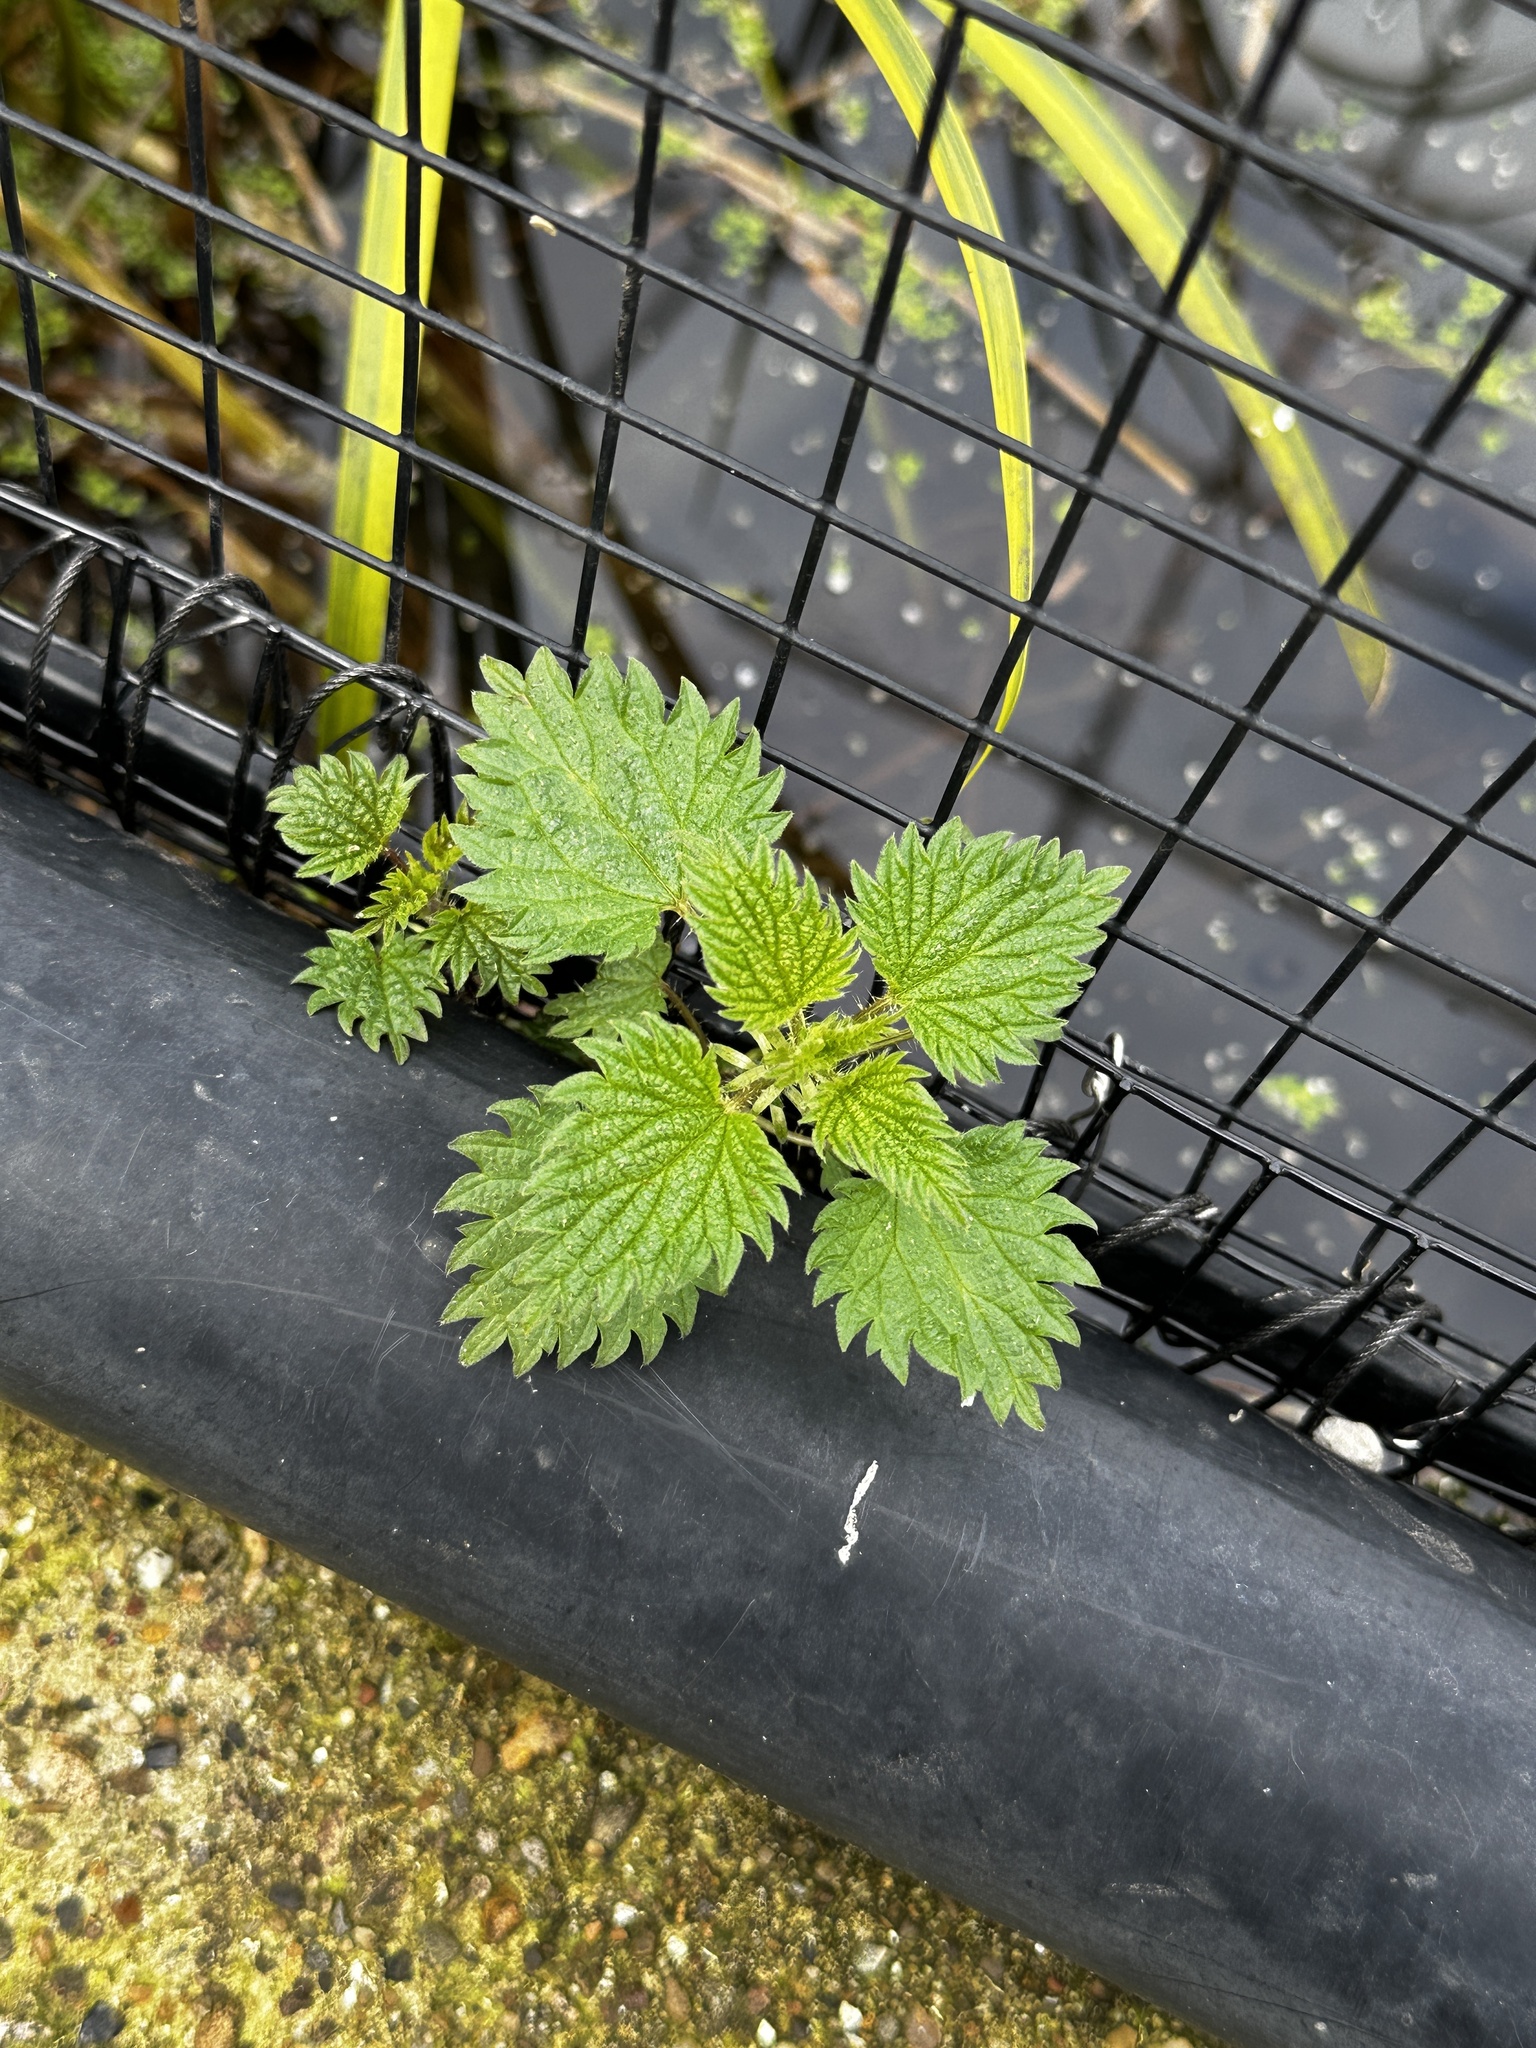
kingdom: Plantae
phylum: Tracheophyta
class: Magnoliopsida
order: Rosales
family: Urticaceae
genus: Urtica
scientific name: Urtica dioica
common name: Common nettle
